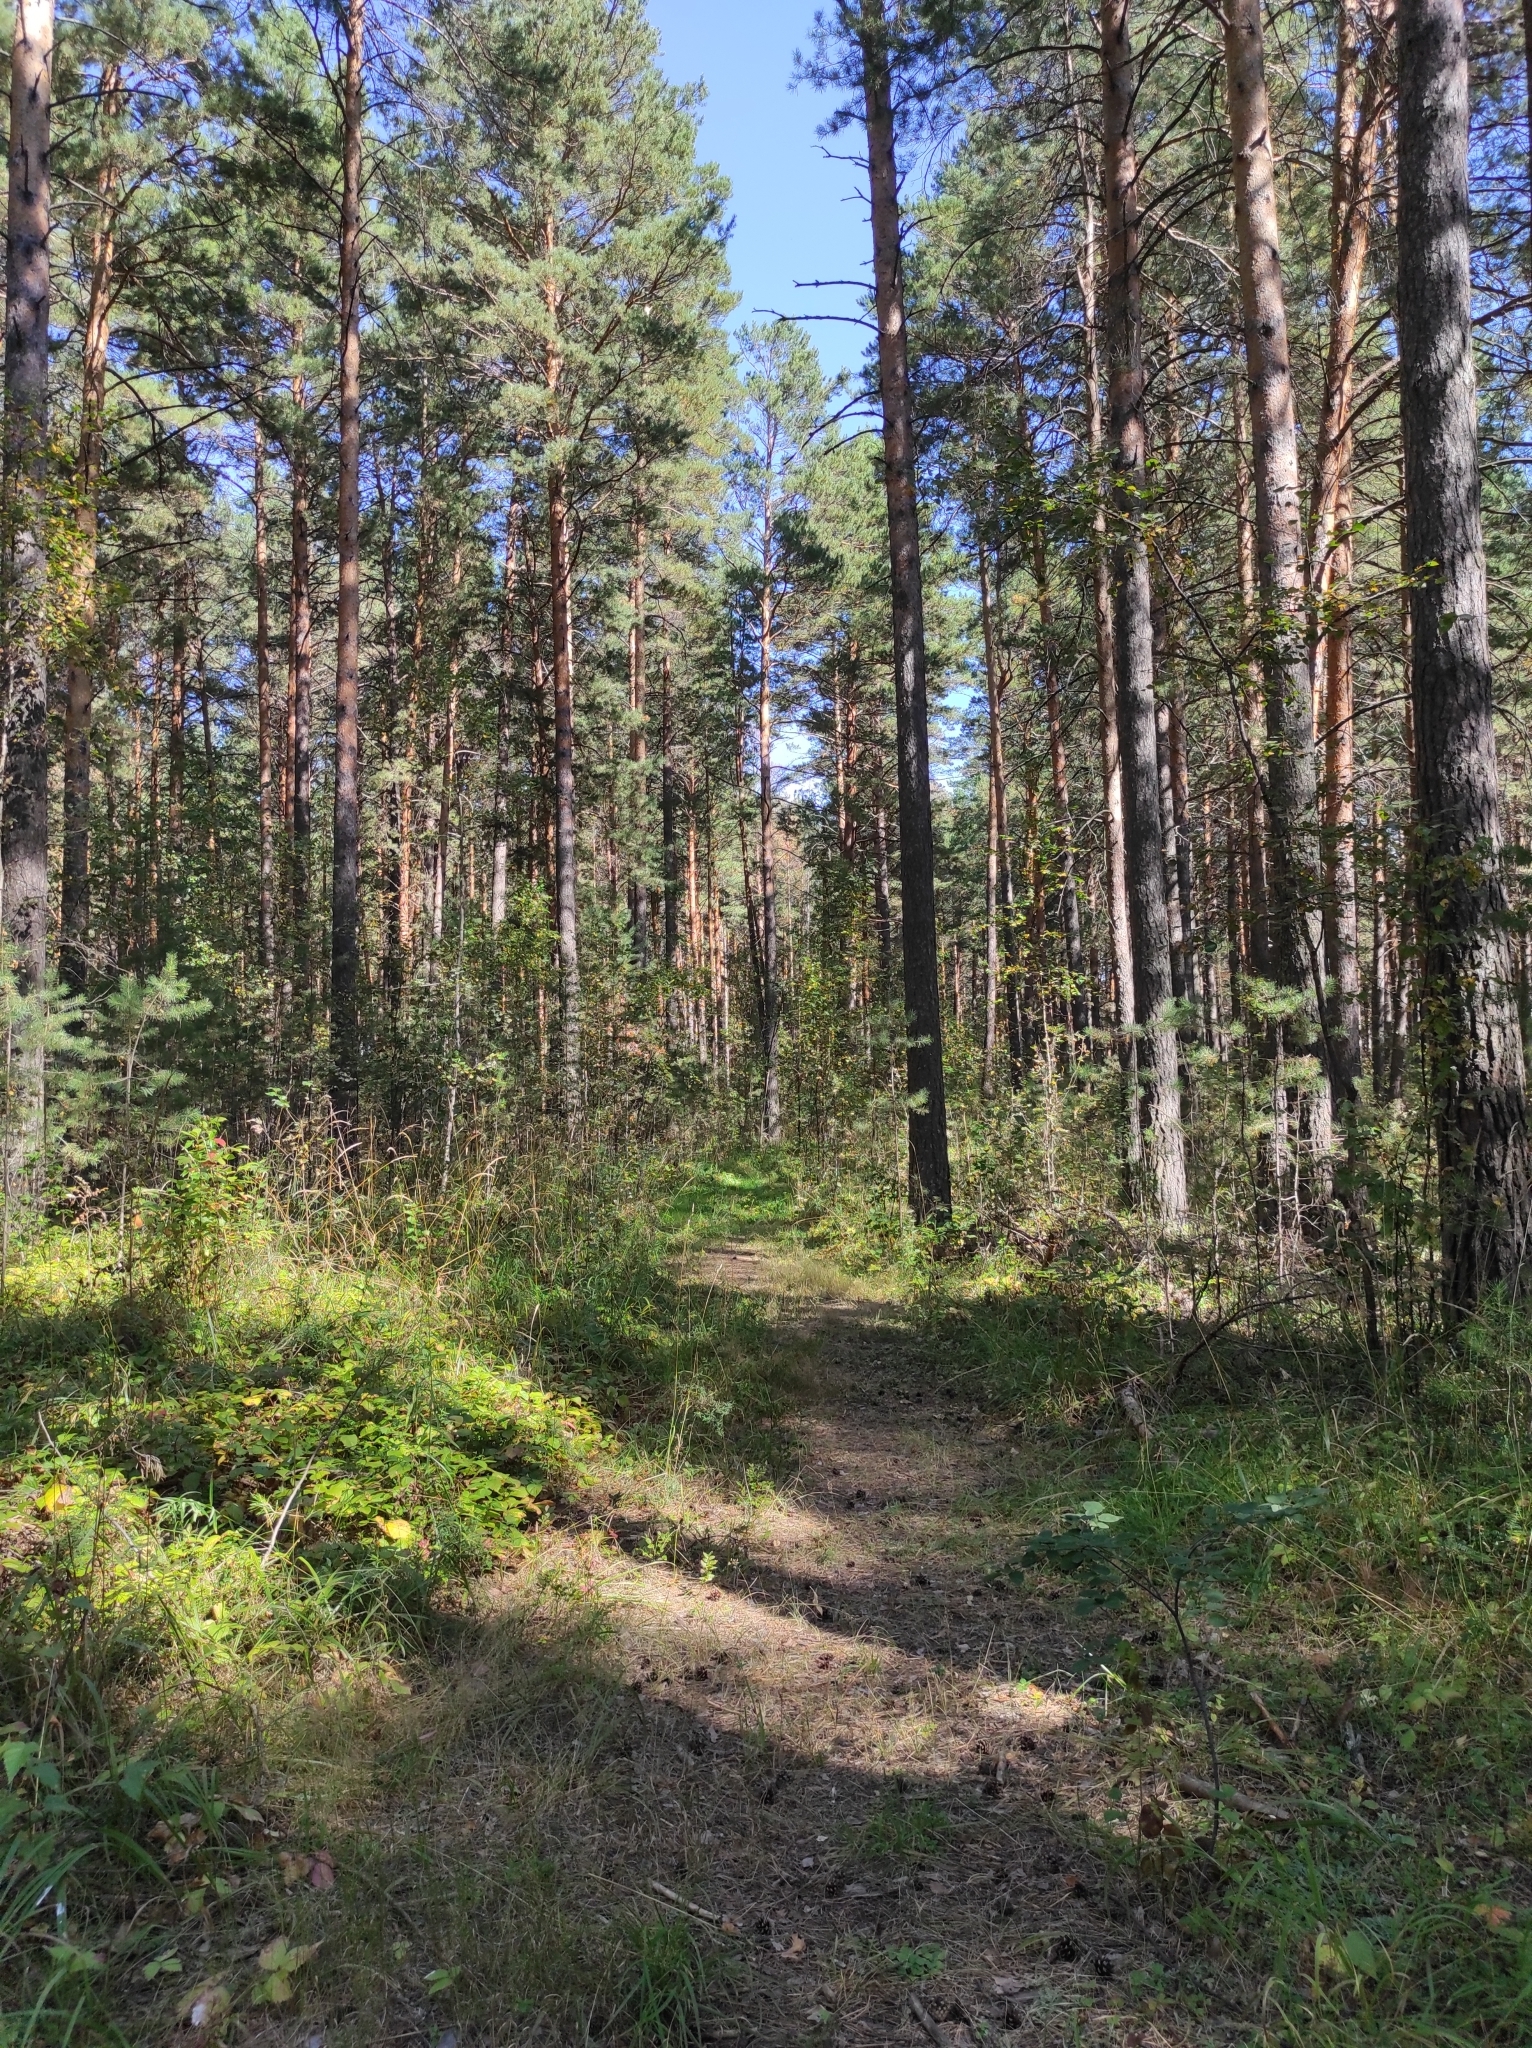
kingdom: Plantae
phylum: Tracheophyta
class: Pinopsida
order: Pinales
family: Pinaceae
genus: Pinus
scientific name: Pinus sylvestris
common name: Scots pine
